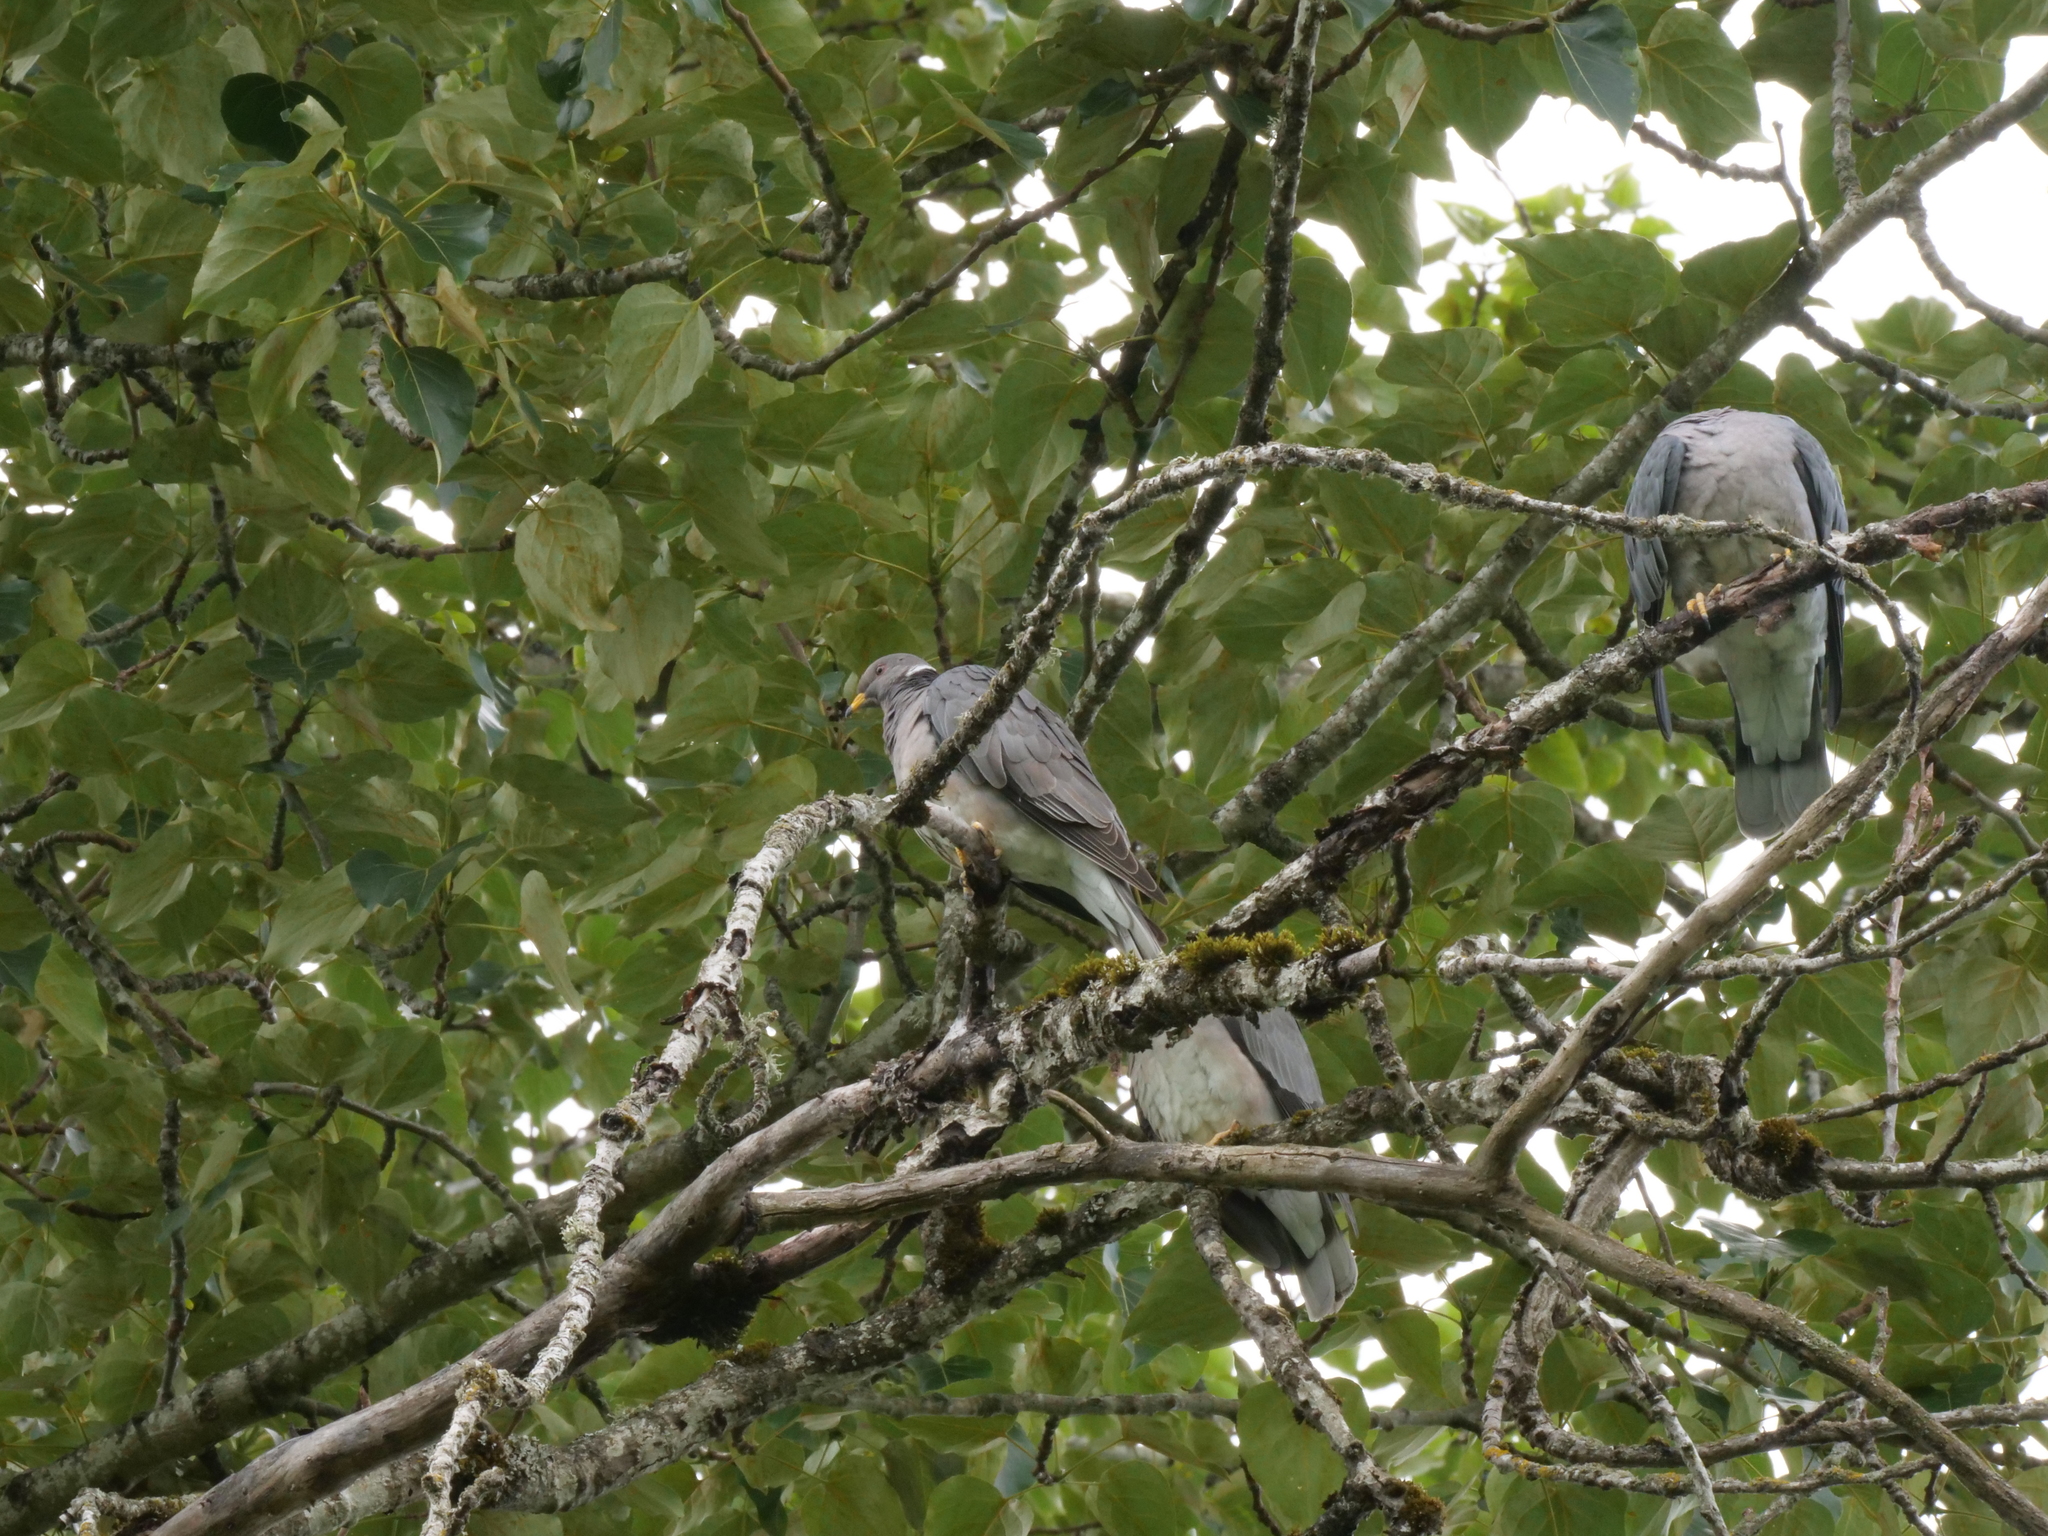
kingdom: Animalia
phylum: Chordata
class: Aves
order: Columbiformes
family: Columbidae
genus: Patagioenas
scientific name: Patagioenas fasciata
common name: Band-tailed pigeon
